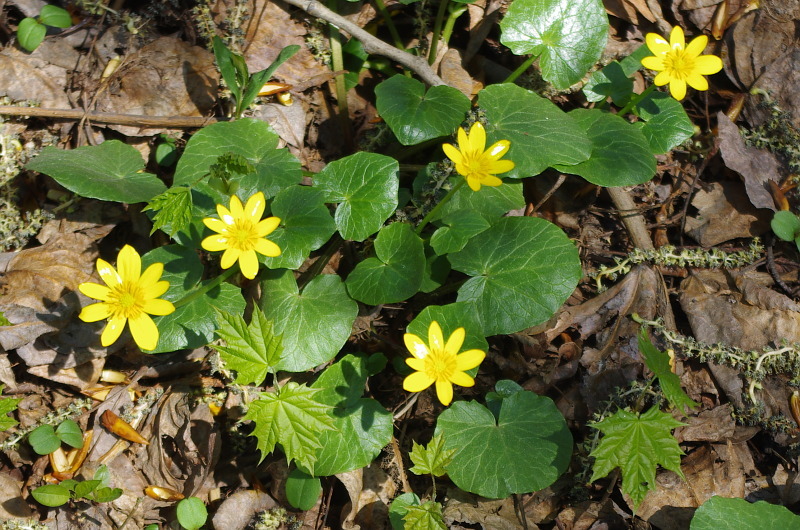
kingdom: Plantae
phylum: Tracheophyta
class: Magnoliopsida
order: Ranunculales
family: Ranunculaceae
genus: Ficaria
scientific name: Ficaria verna
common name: Lesser celandine
